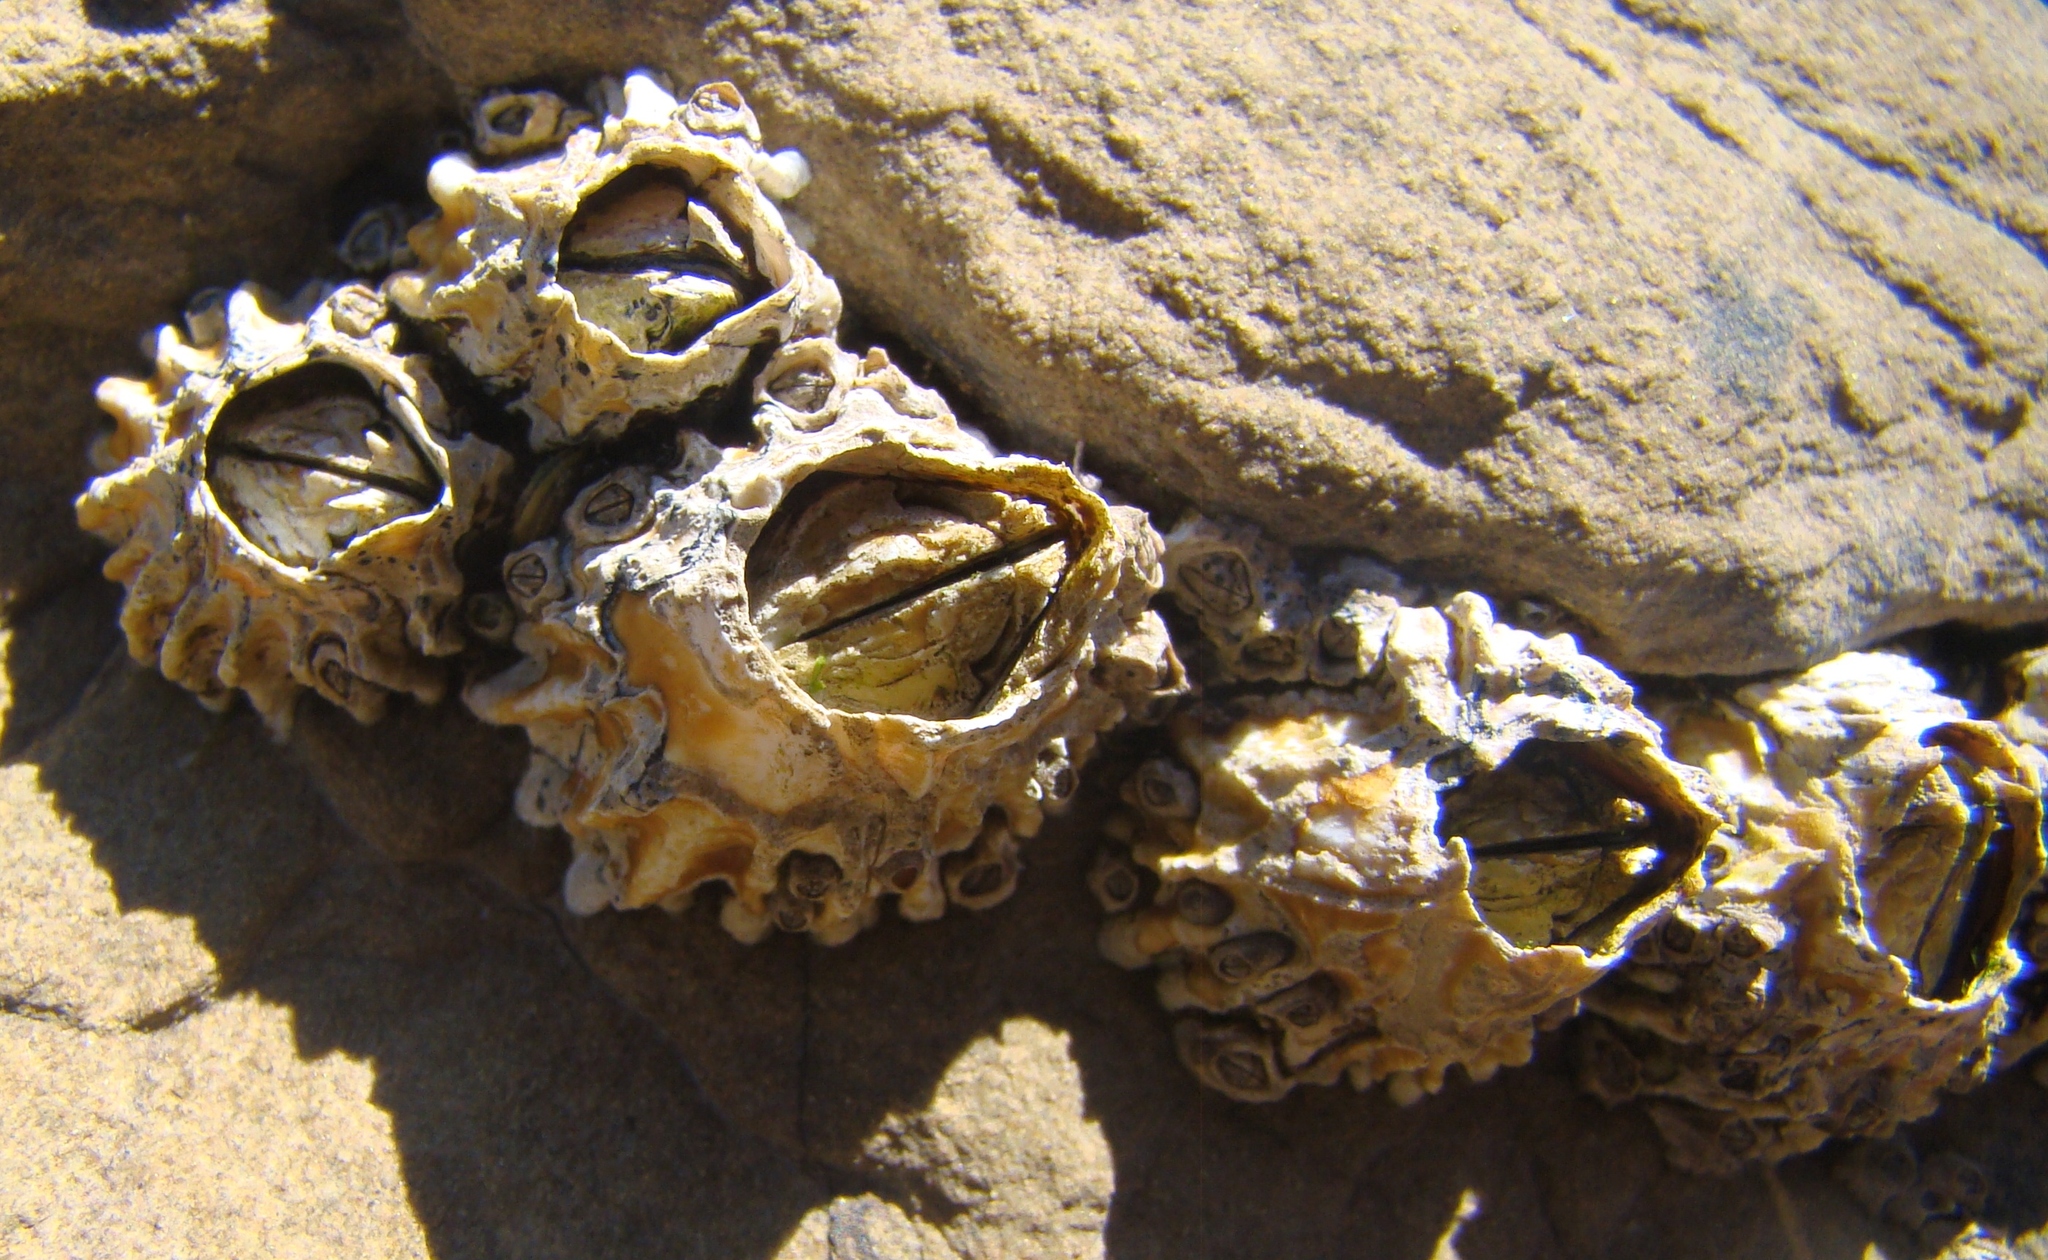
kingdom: Animalia
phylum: Arthropoda
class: Maxillopoda
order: Sessilia
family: Tetraclitidae
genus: Epopella
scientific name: Epopella plicata
